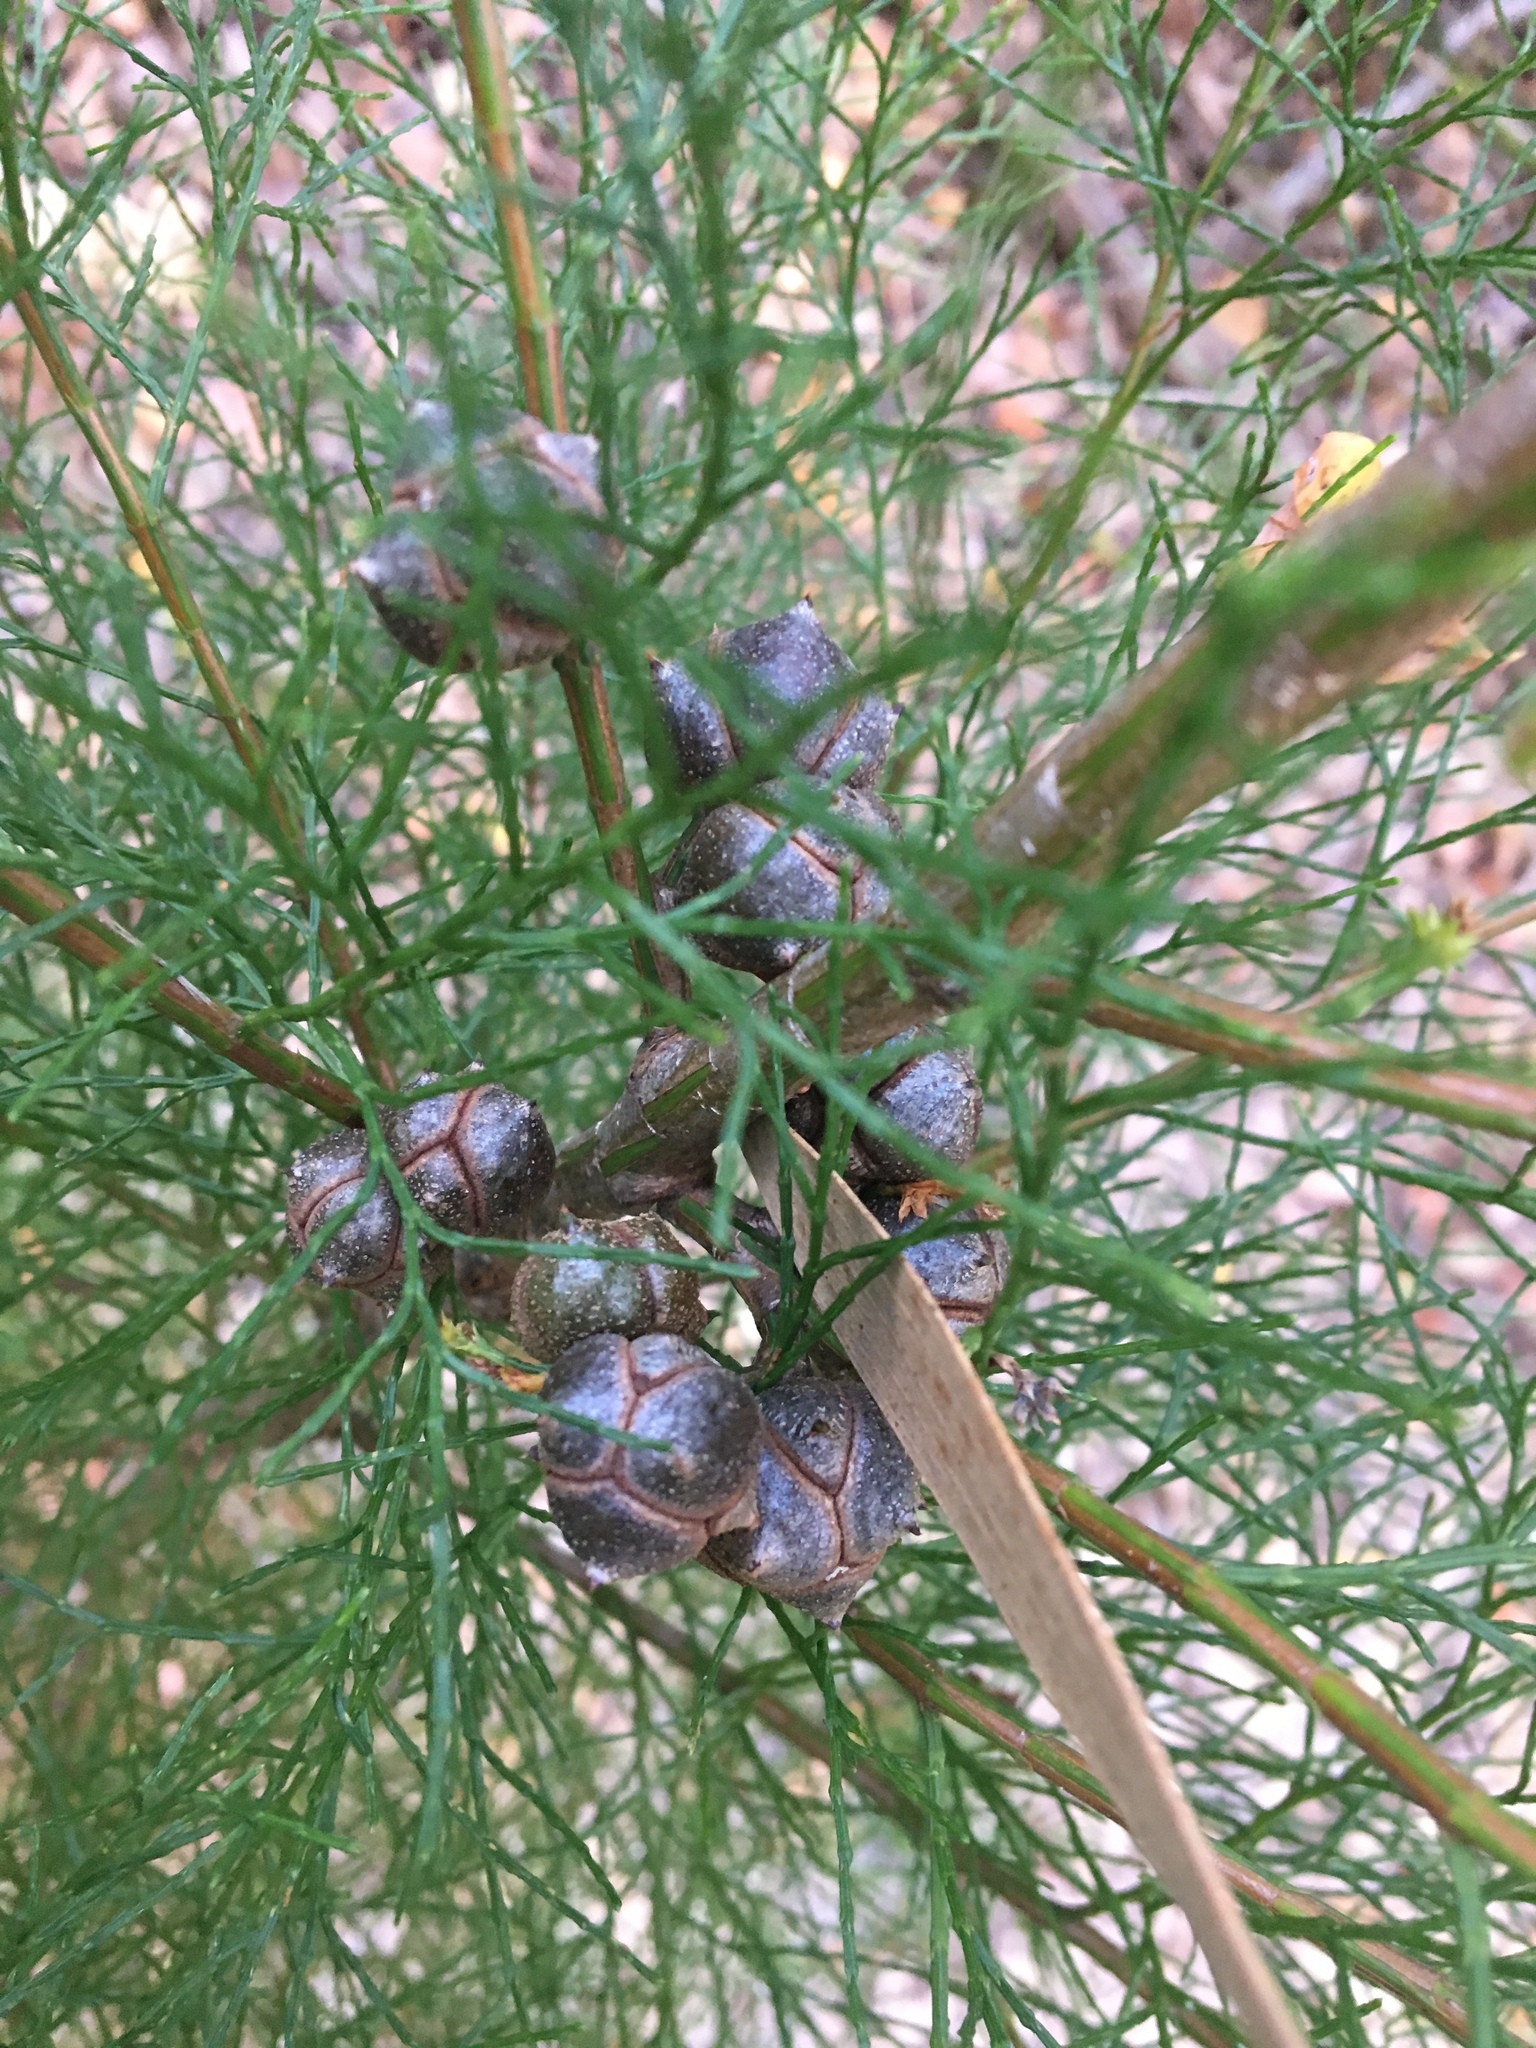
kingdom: Plantae
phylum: Tracheophyta
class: Pinopsida
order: Pinales
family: Cupressaceae
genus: Callitris
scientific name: Callitris rhomboidea
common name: Illawara mountain pine
